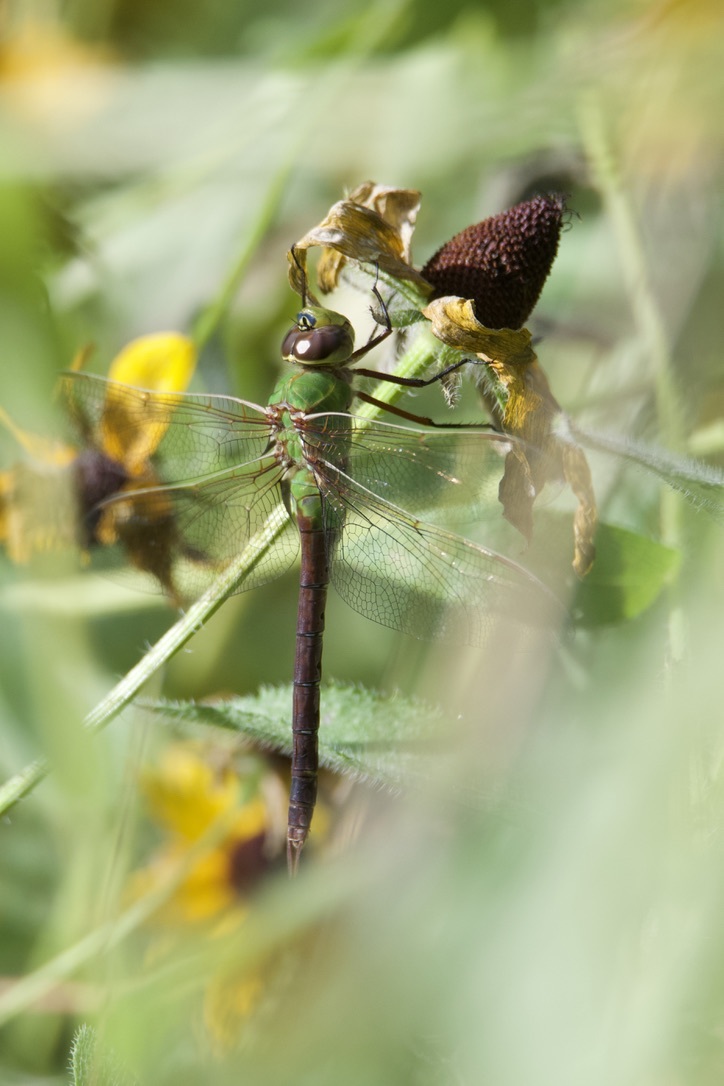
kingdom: Animalia
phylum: Arthropoda
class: Insecta
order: Odonata
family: Aeshnidae
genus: Anax
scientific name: Anax junius
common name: Common green darner
